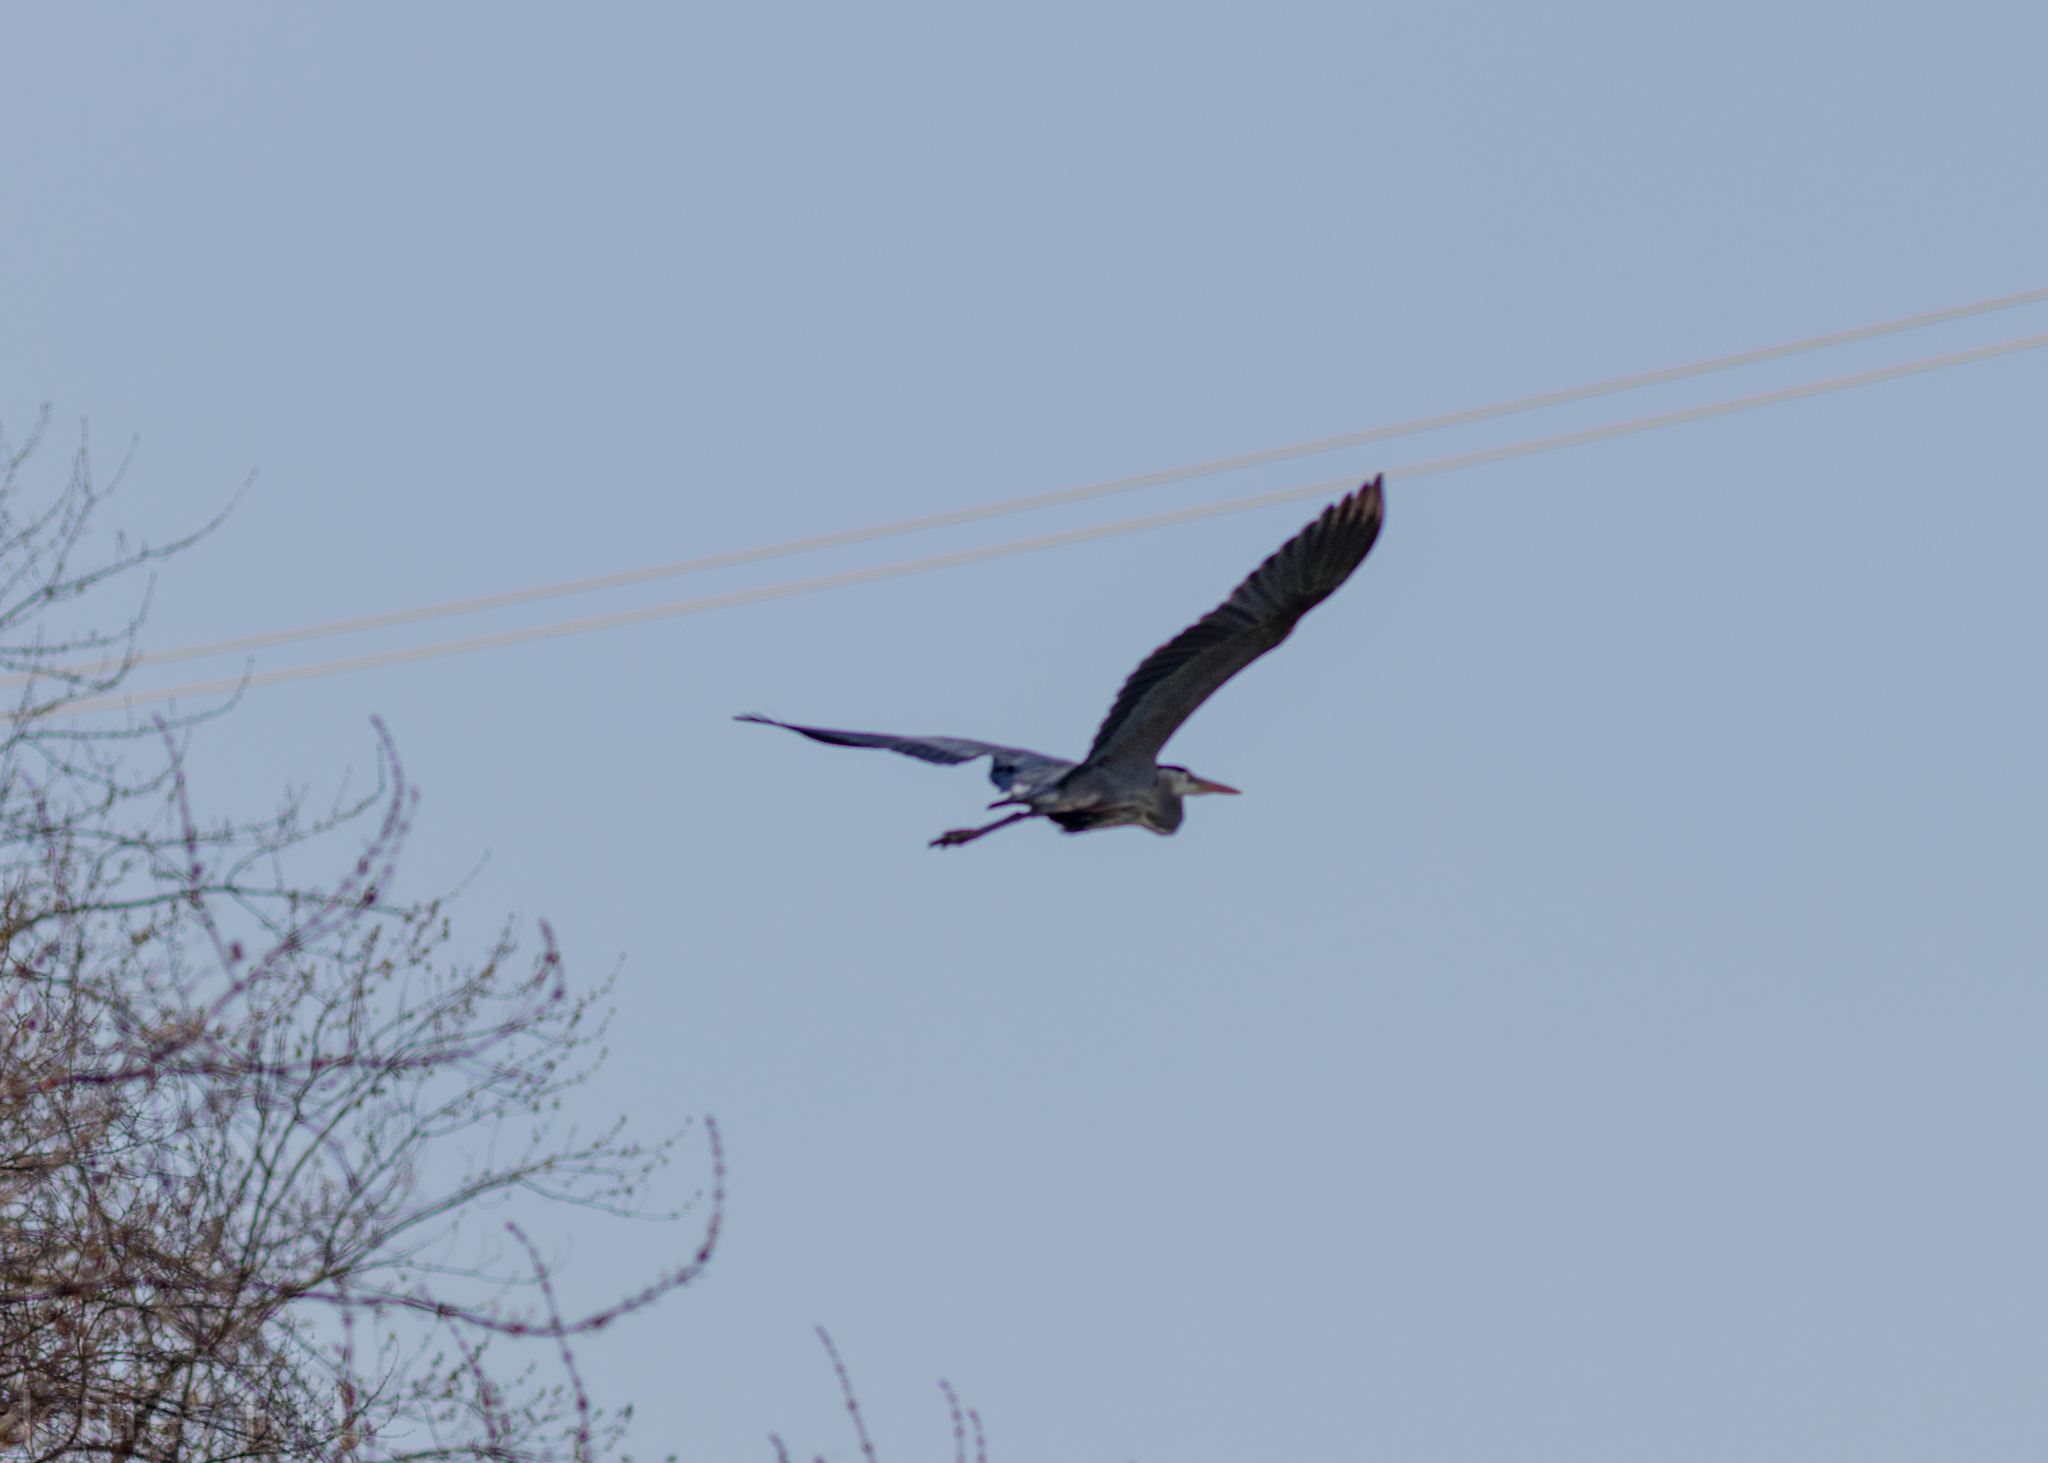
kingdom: Animalia
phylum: Chordata
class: Aves
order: Pelecaniformes
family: Ardeidae
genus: Ardea
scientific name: Ardea herodias
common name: Great blue heron
